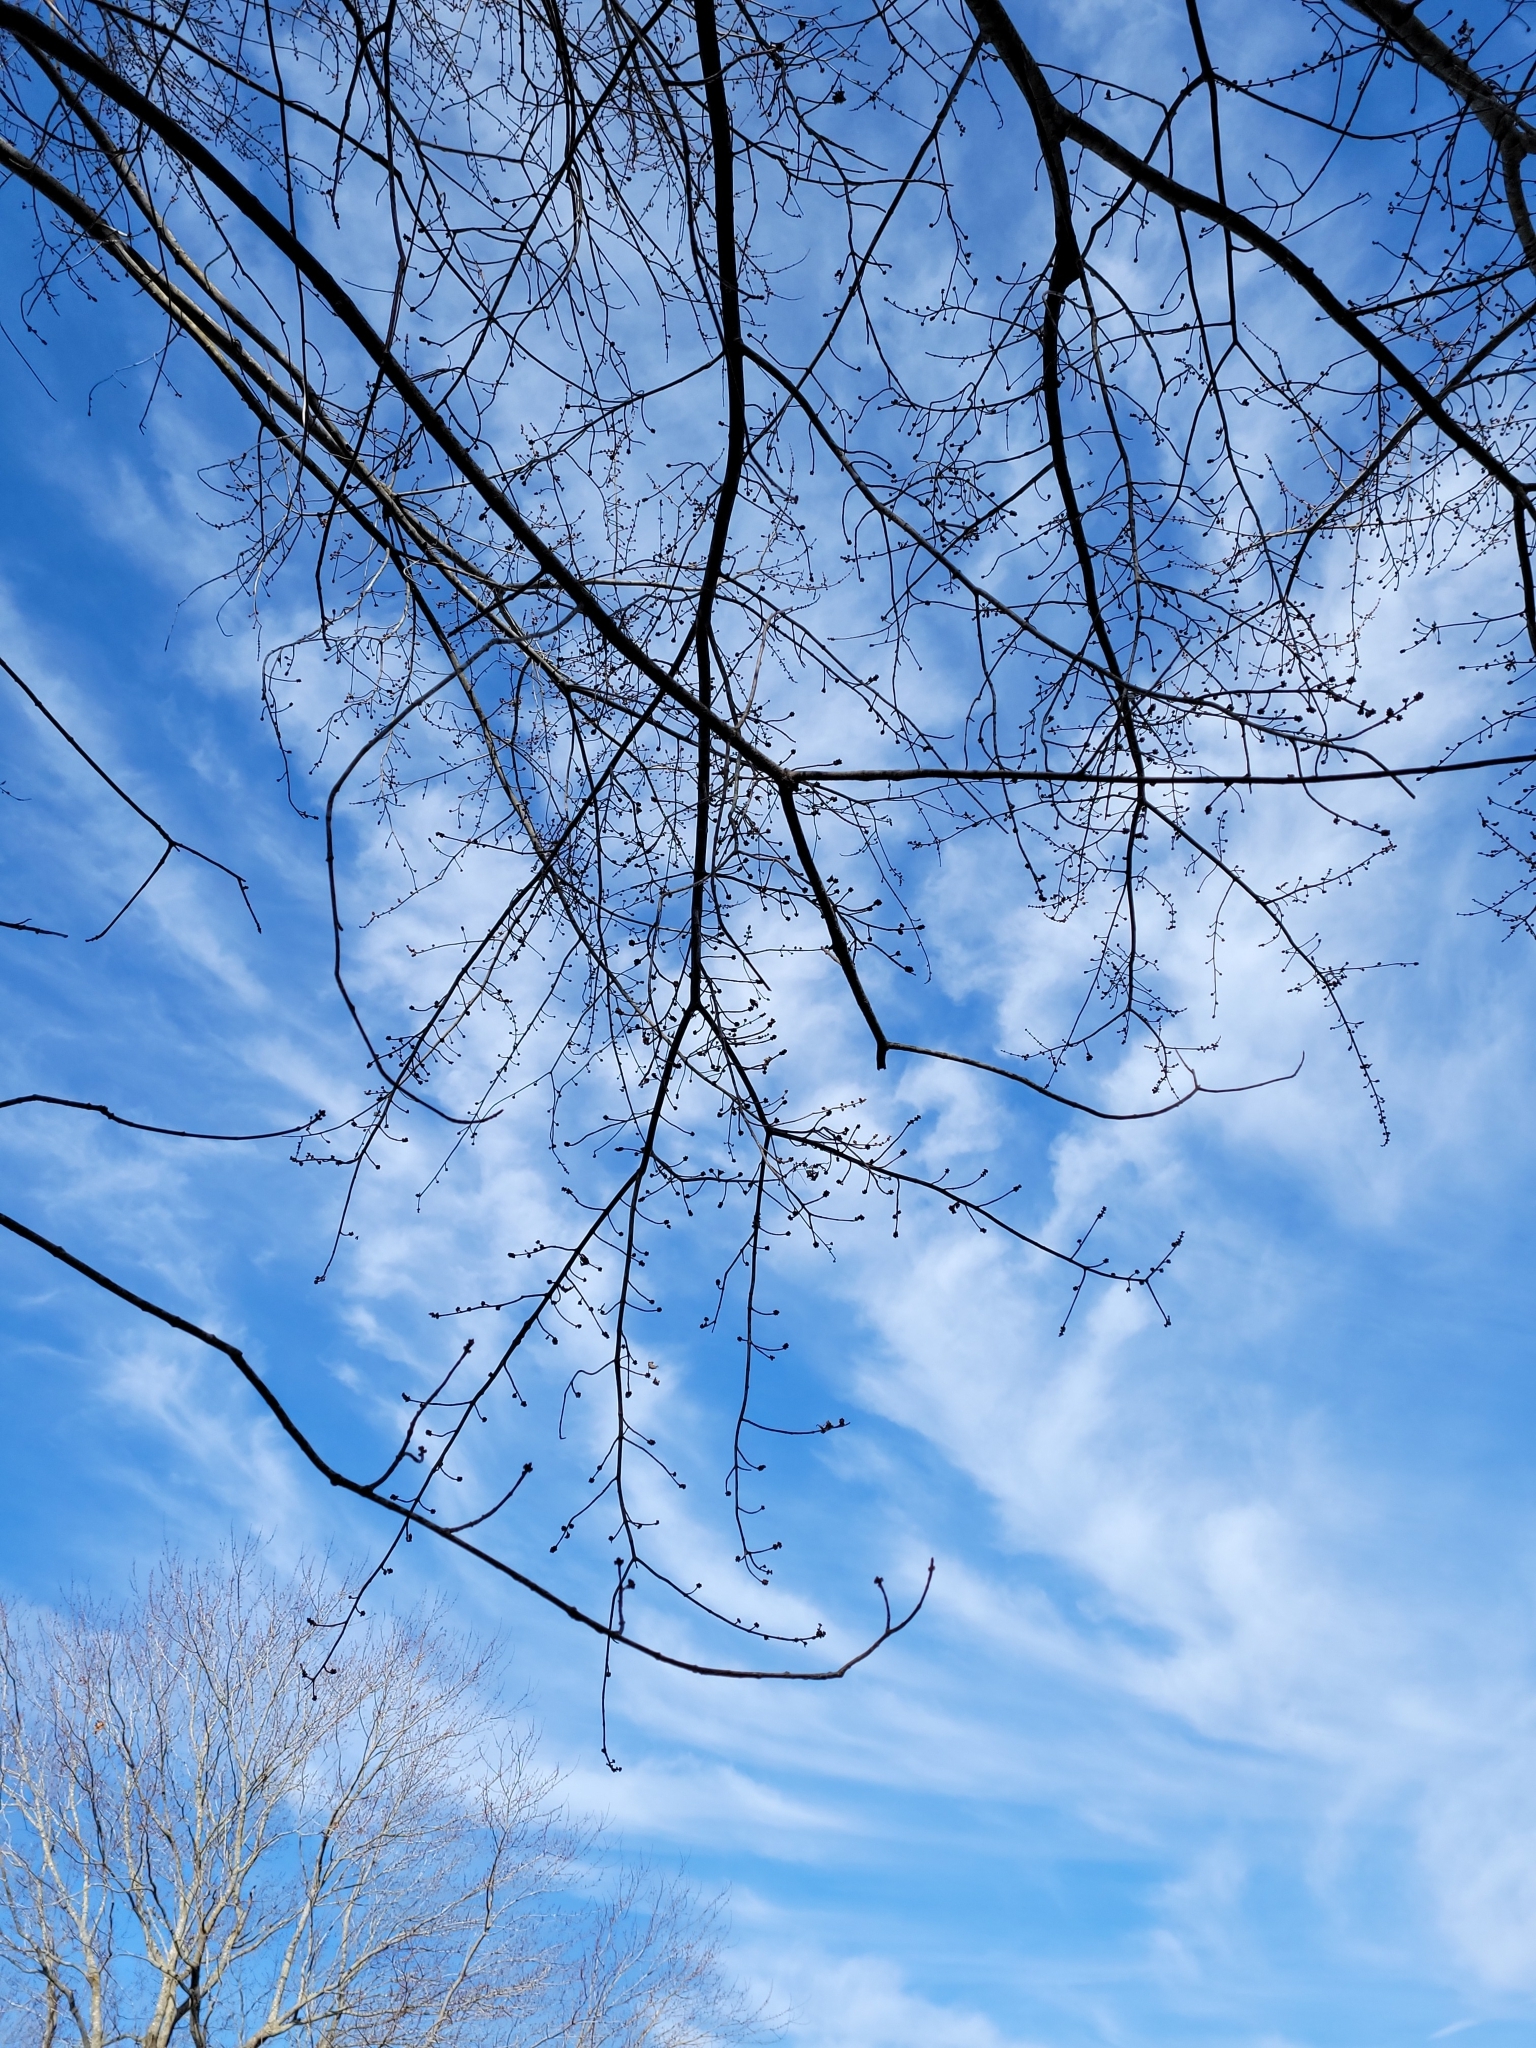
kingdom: Plantae
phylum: Tracheophyta
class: Magnoliopsida
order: Sapindales
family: Sapindaceae
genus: Acer
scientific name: Acer saccharinum
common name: Silver maple
